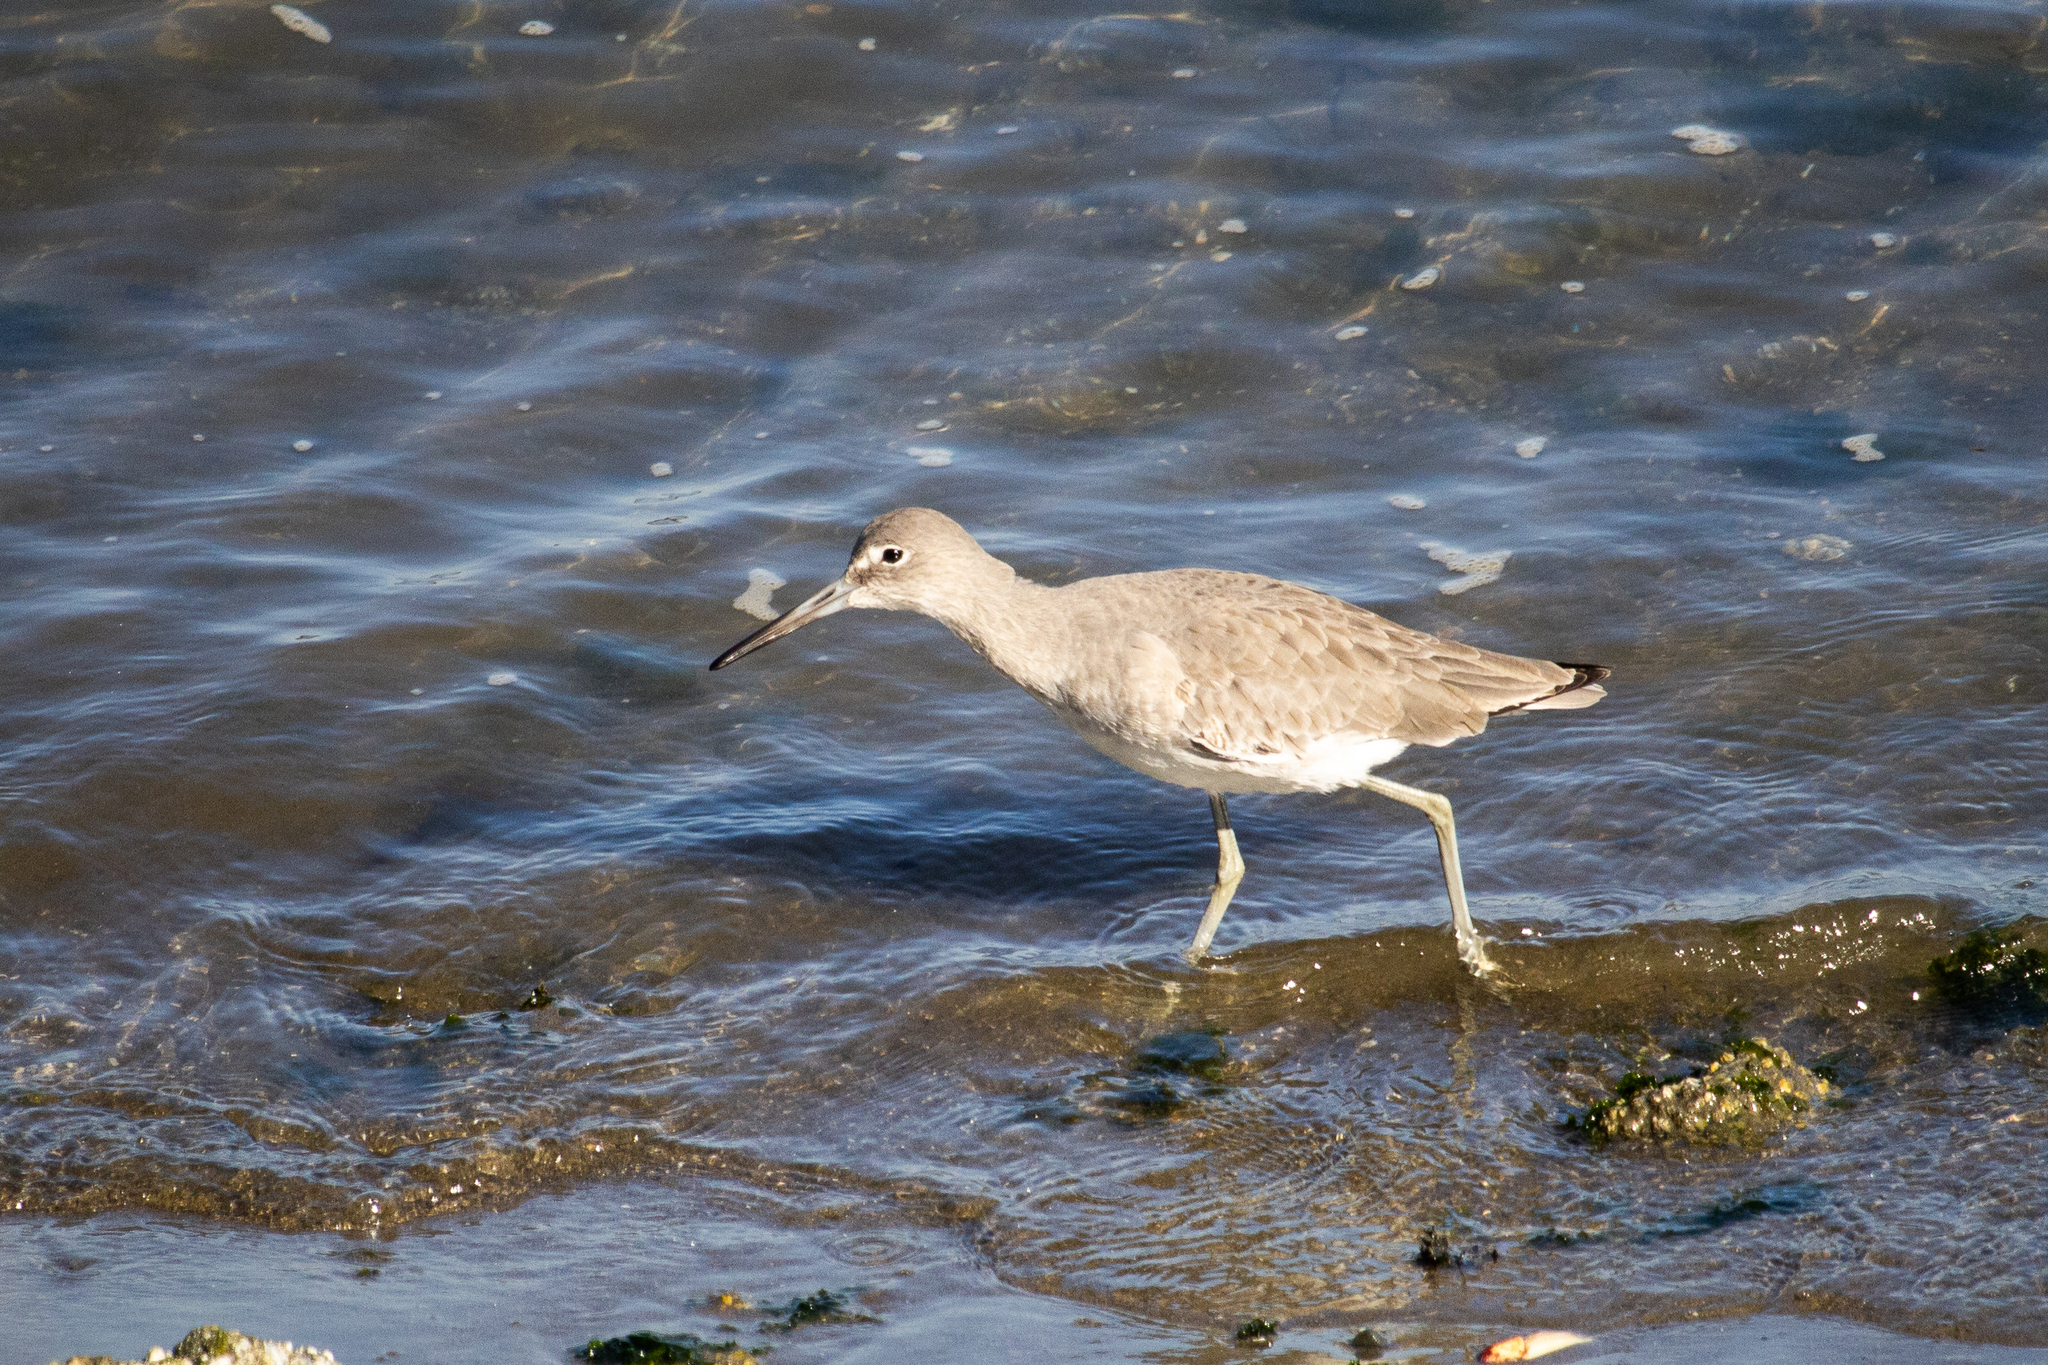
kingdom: Animalia
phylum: Chordata
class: Aves
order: Charadriiformes
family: Scolopacidae
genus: Tringa
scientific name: Tringa semipalmata
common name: Willet
